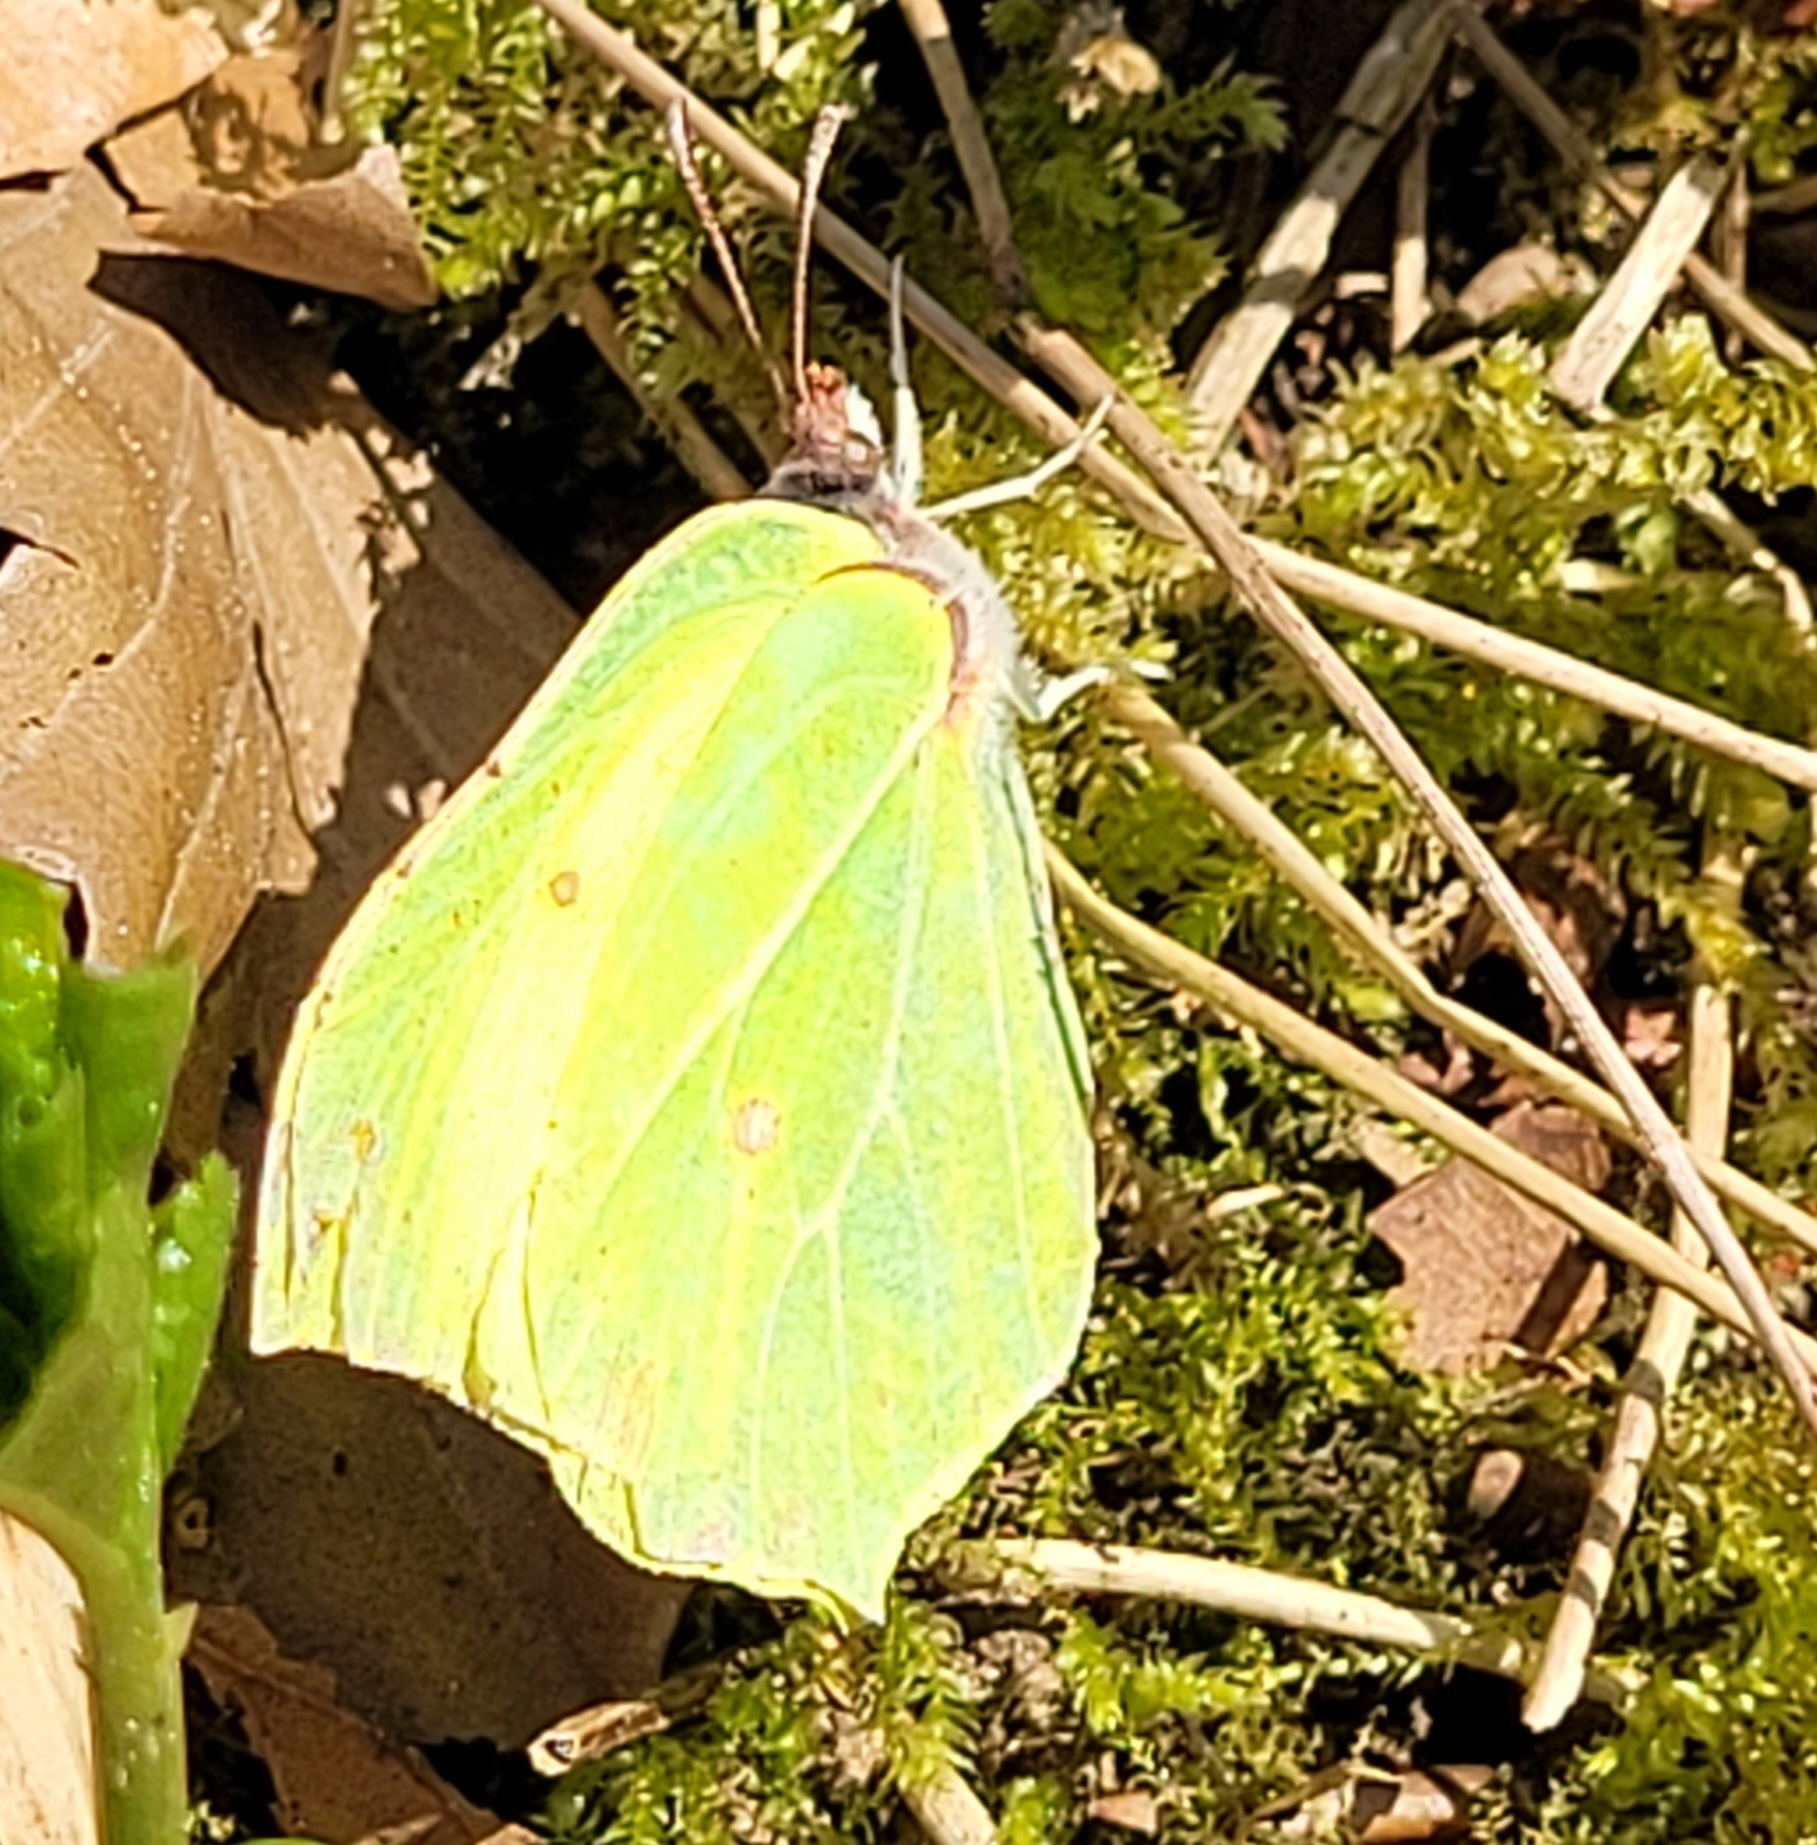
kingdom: Animalia
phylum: Arthropoda
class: Insecta
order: Lepidoptera
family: Pieridae
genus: Gonepteryx
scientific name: Gonepteryx rhamni
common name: Brimstone
